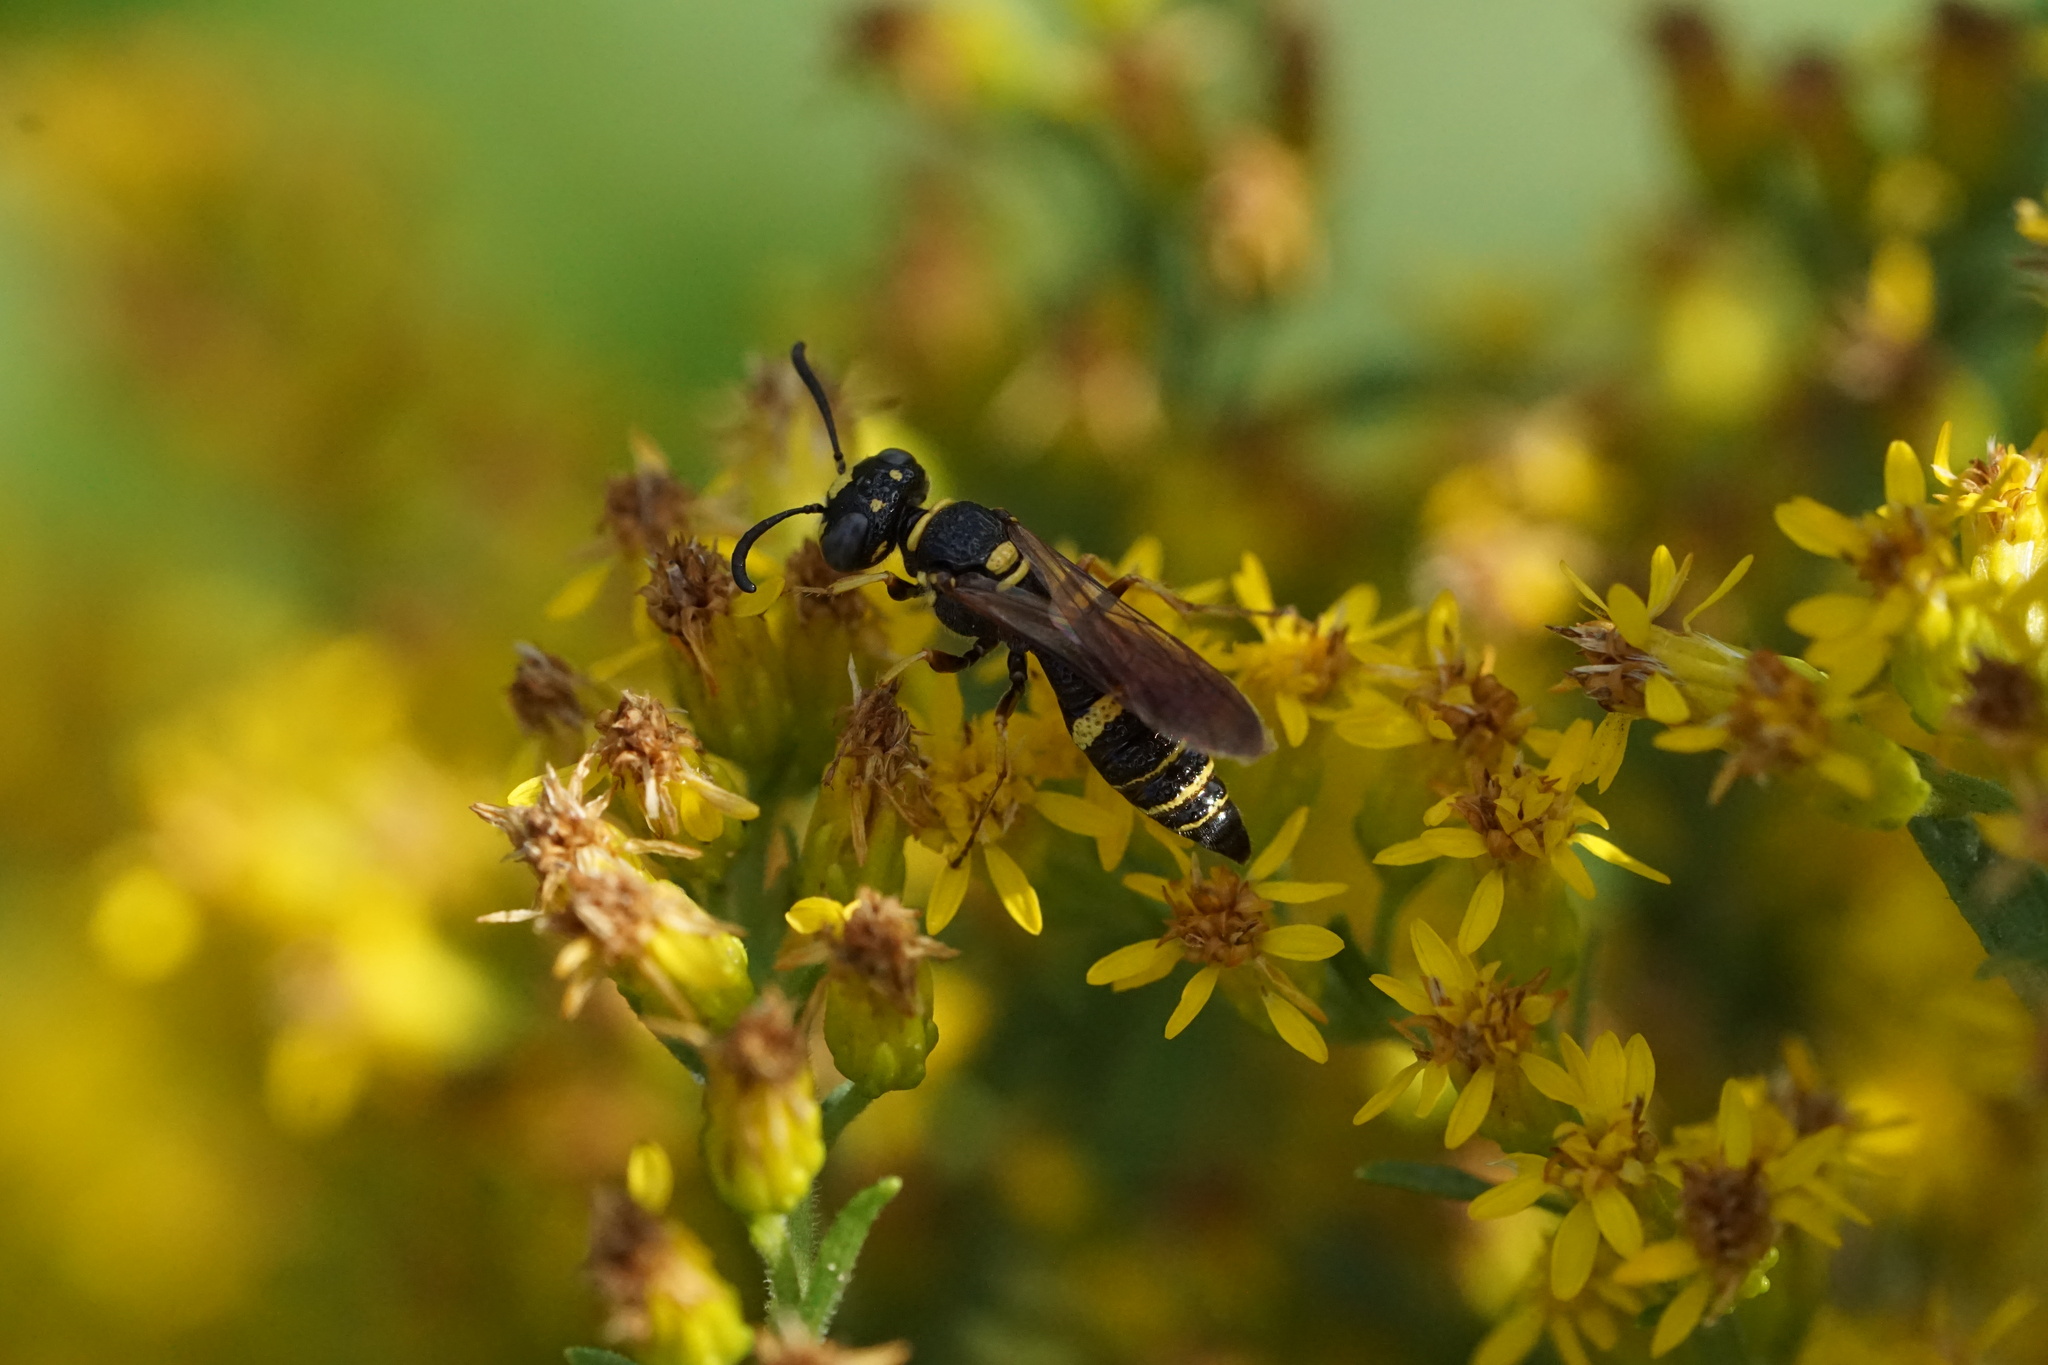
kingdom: Animalia
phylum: Arthropoda
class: Insecta
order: Hymenoptera
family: Crabronidae
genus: Philanthus
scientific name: Philanthus gibbosus
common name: Humped beewolf
